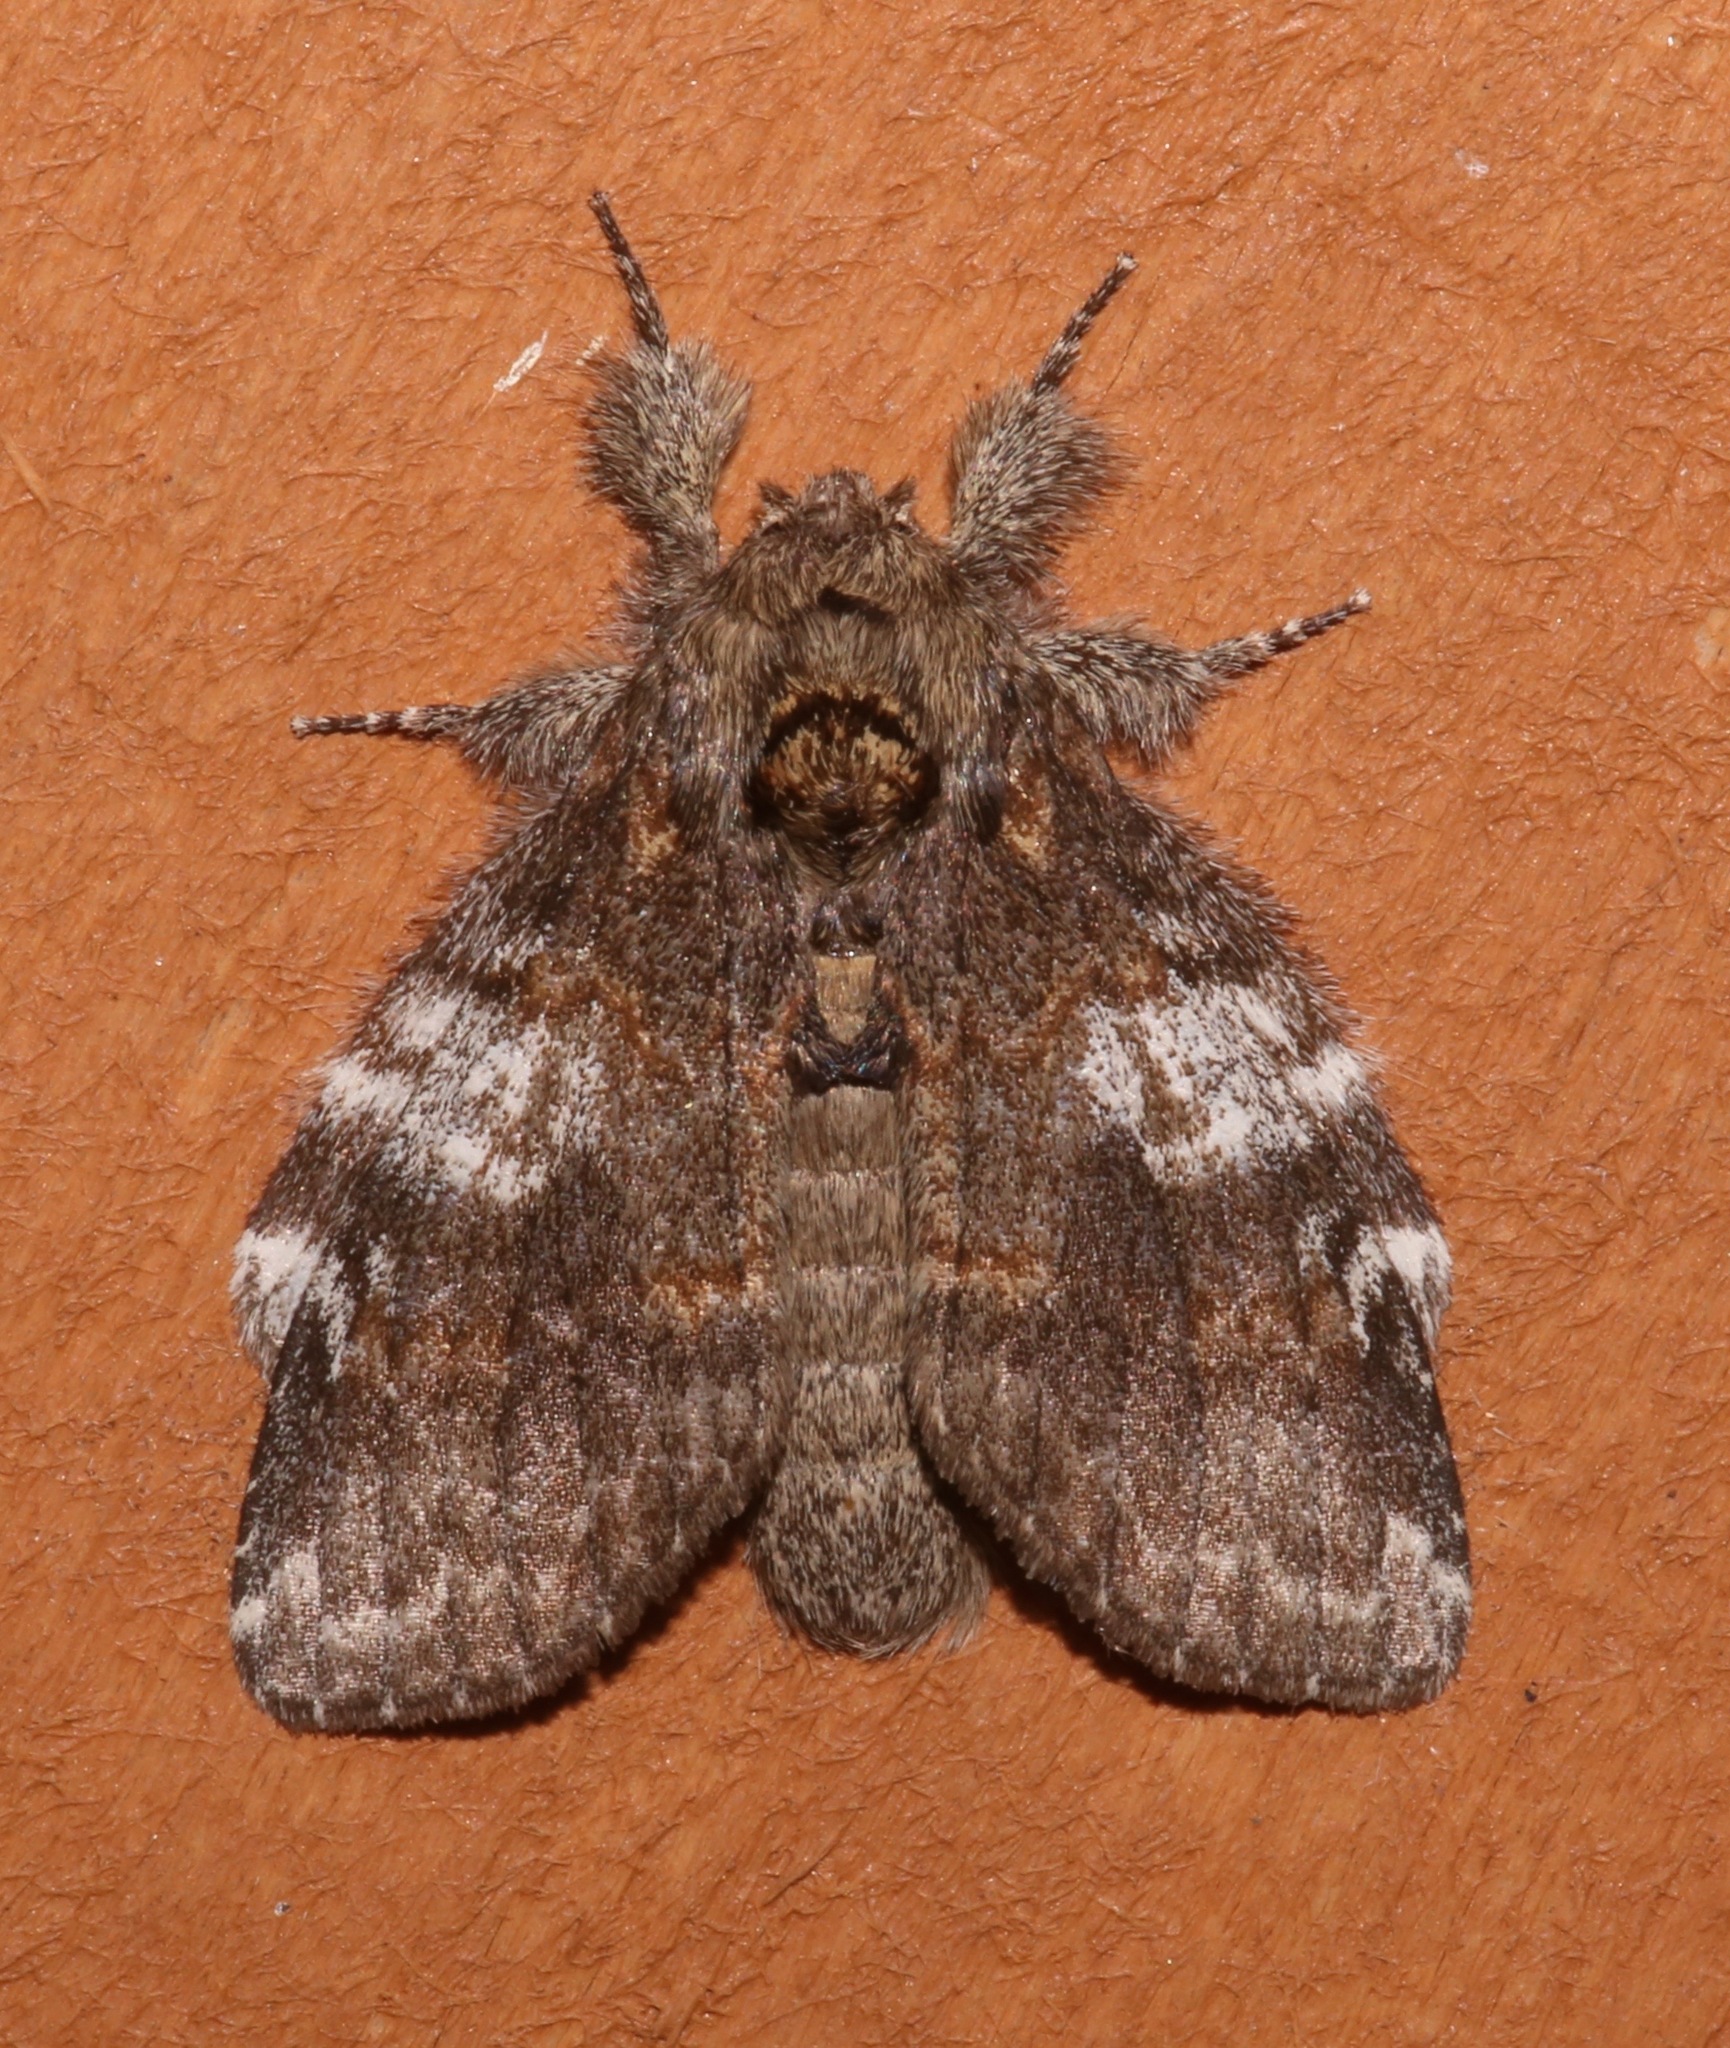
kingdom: Animalia
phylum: Arthropoda
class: Insecta
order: Lepidoptera
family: Notodontidae
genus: Peridea
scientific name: Peridea angulosa
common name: Angulose prominent
